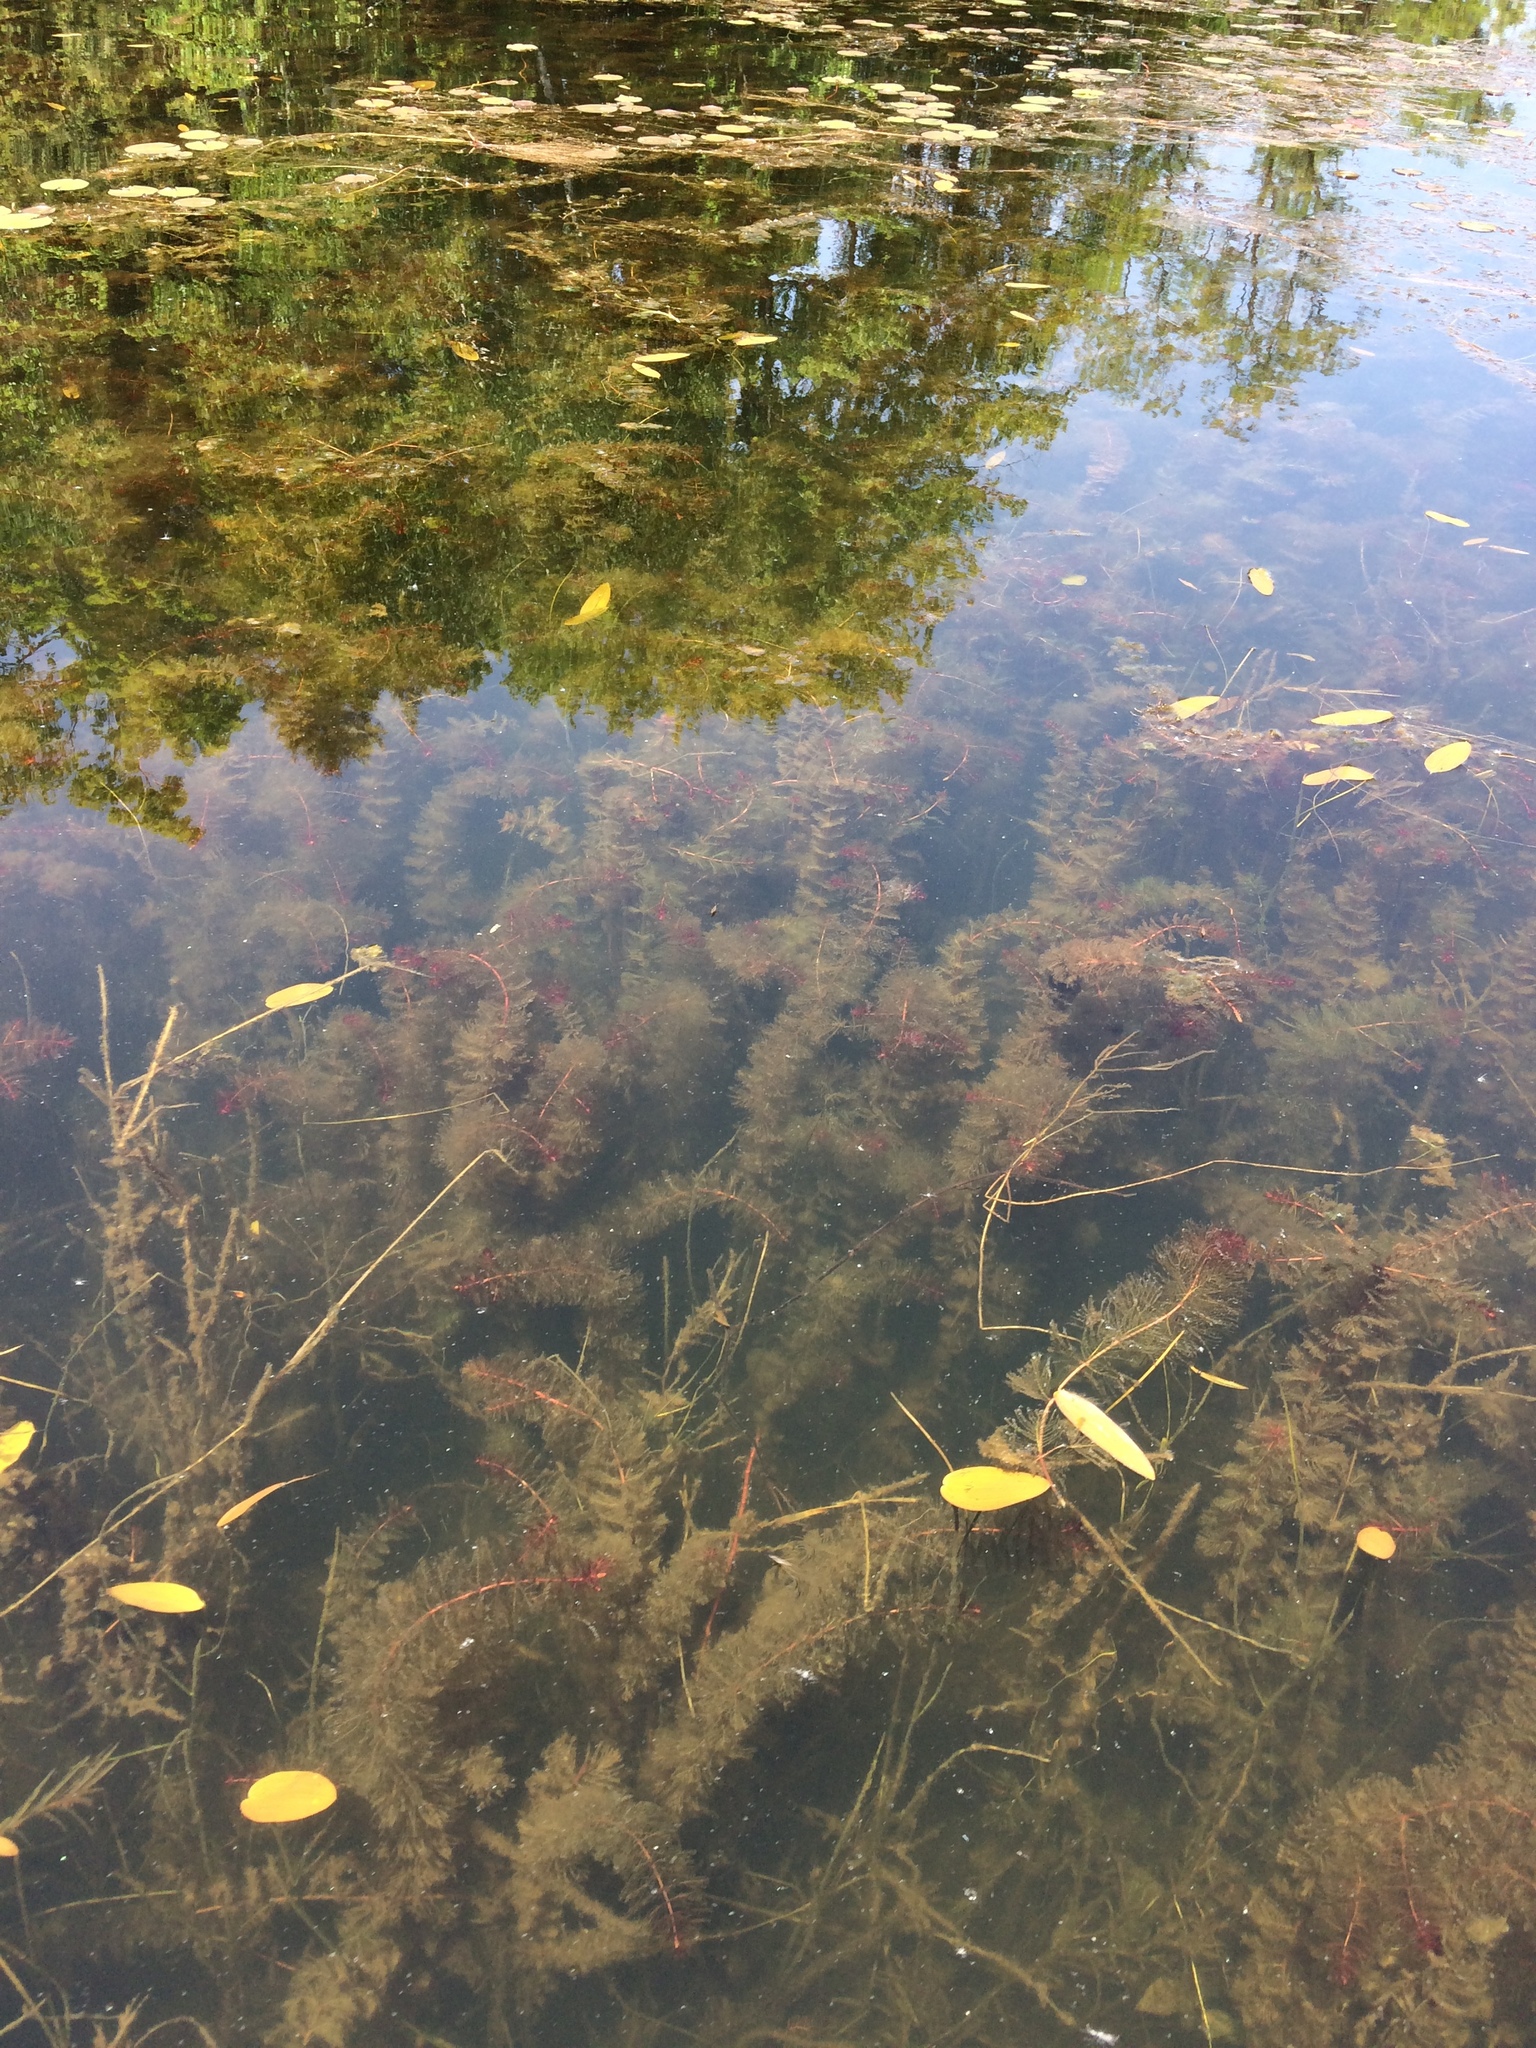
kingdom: Plantae
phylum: Tracheophyta
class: Magnoliopsida
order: Saxifragales
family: Haloragaceae
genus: Myriophyllum
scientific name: Myriophyllum spicatum
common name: Spiked water-milfoil
